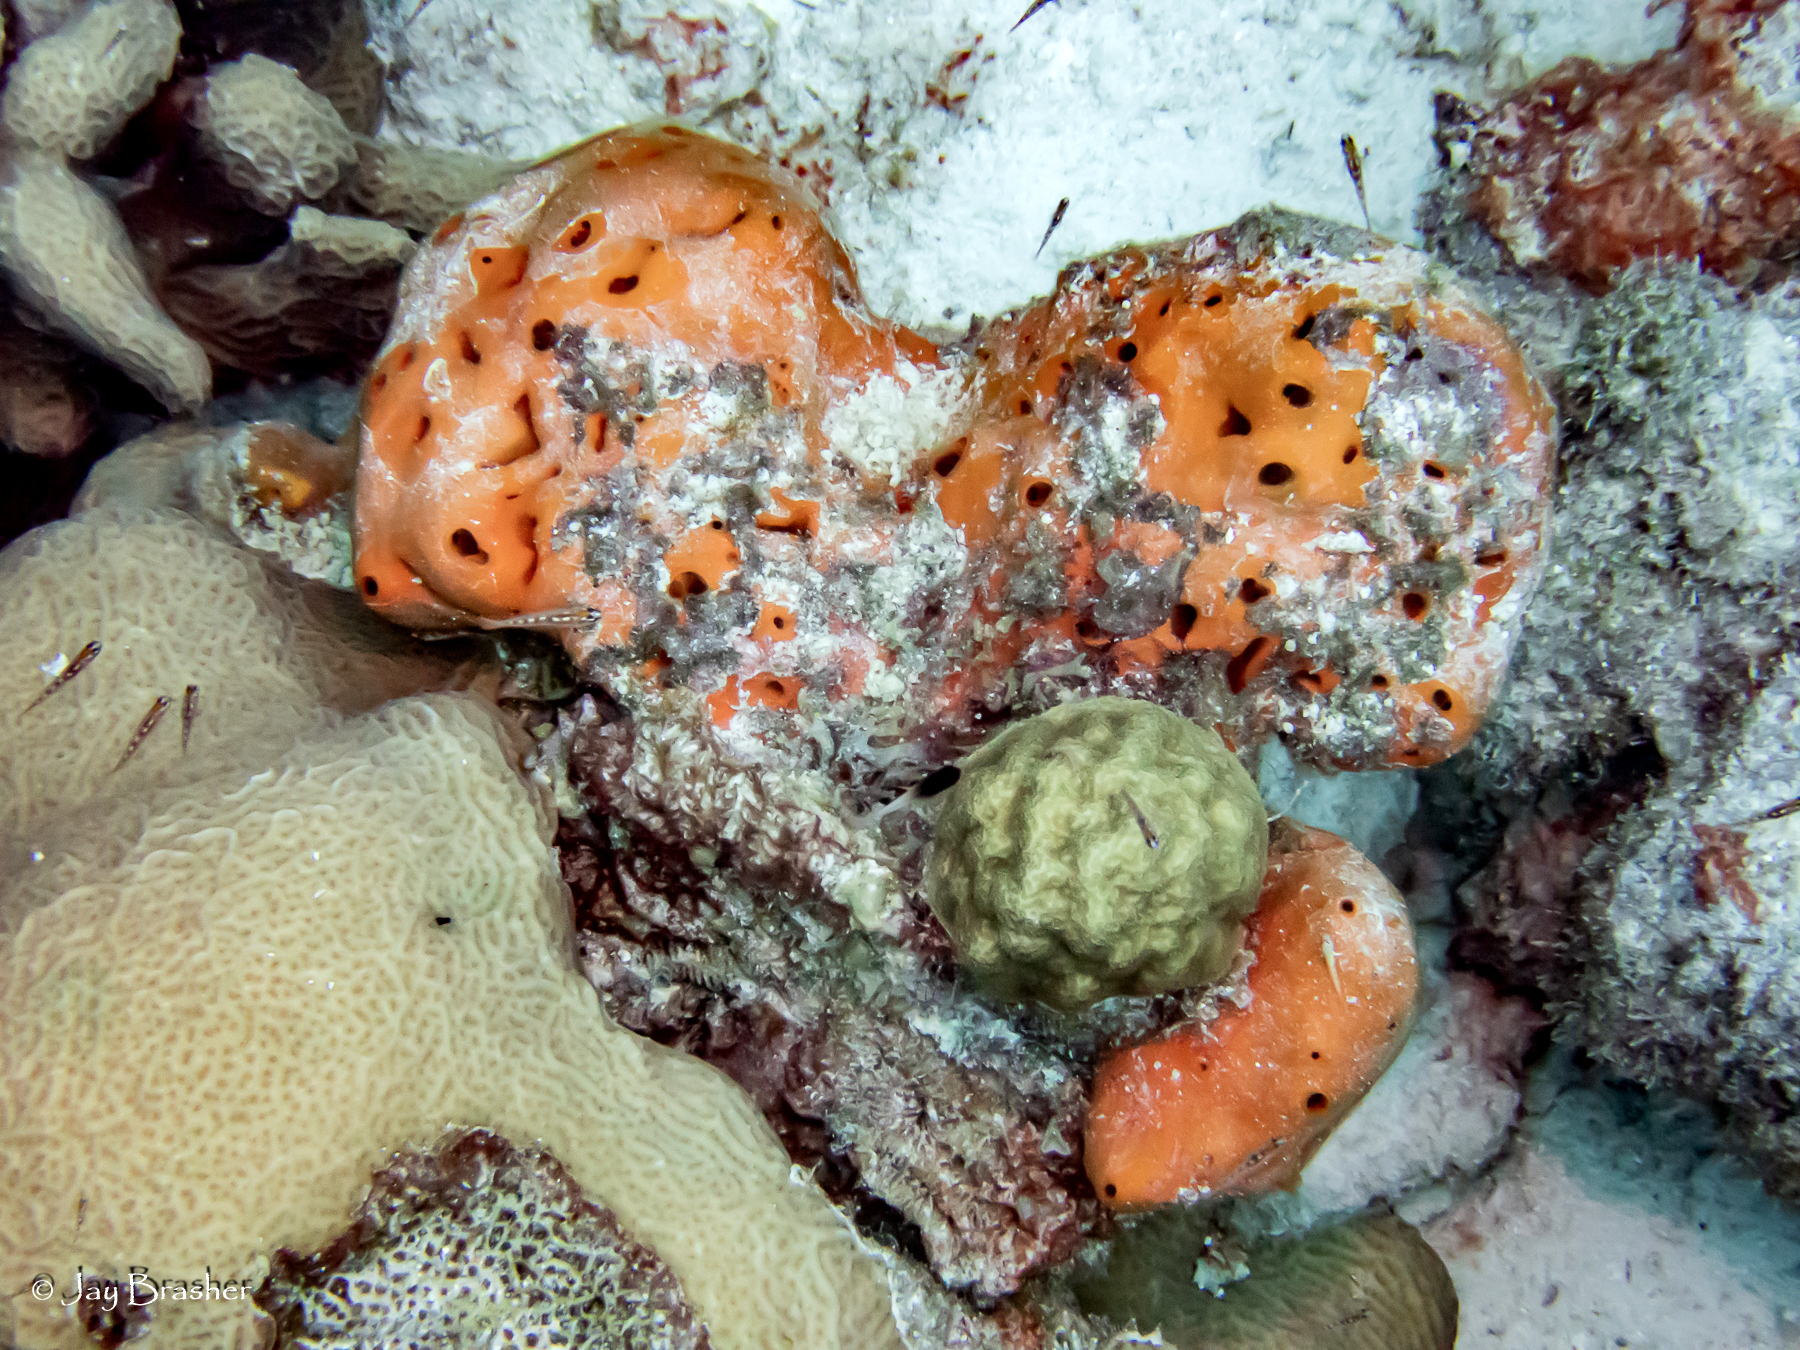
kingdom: Animalia
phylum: Cnidaria
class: Anthozoa
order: Scleractinia
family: Poritidae
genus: Porites
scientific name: Porites astreoides
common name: Mustard hill coral
